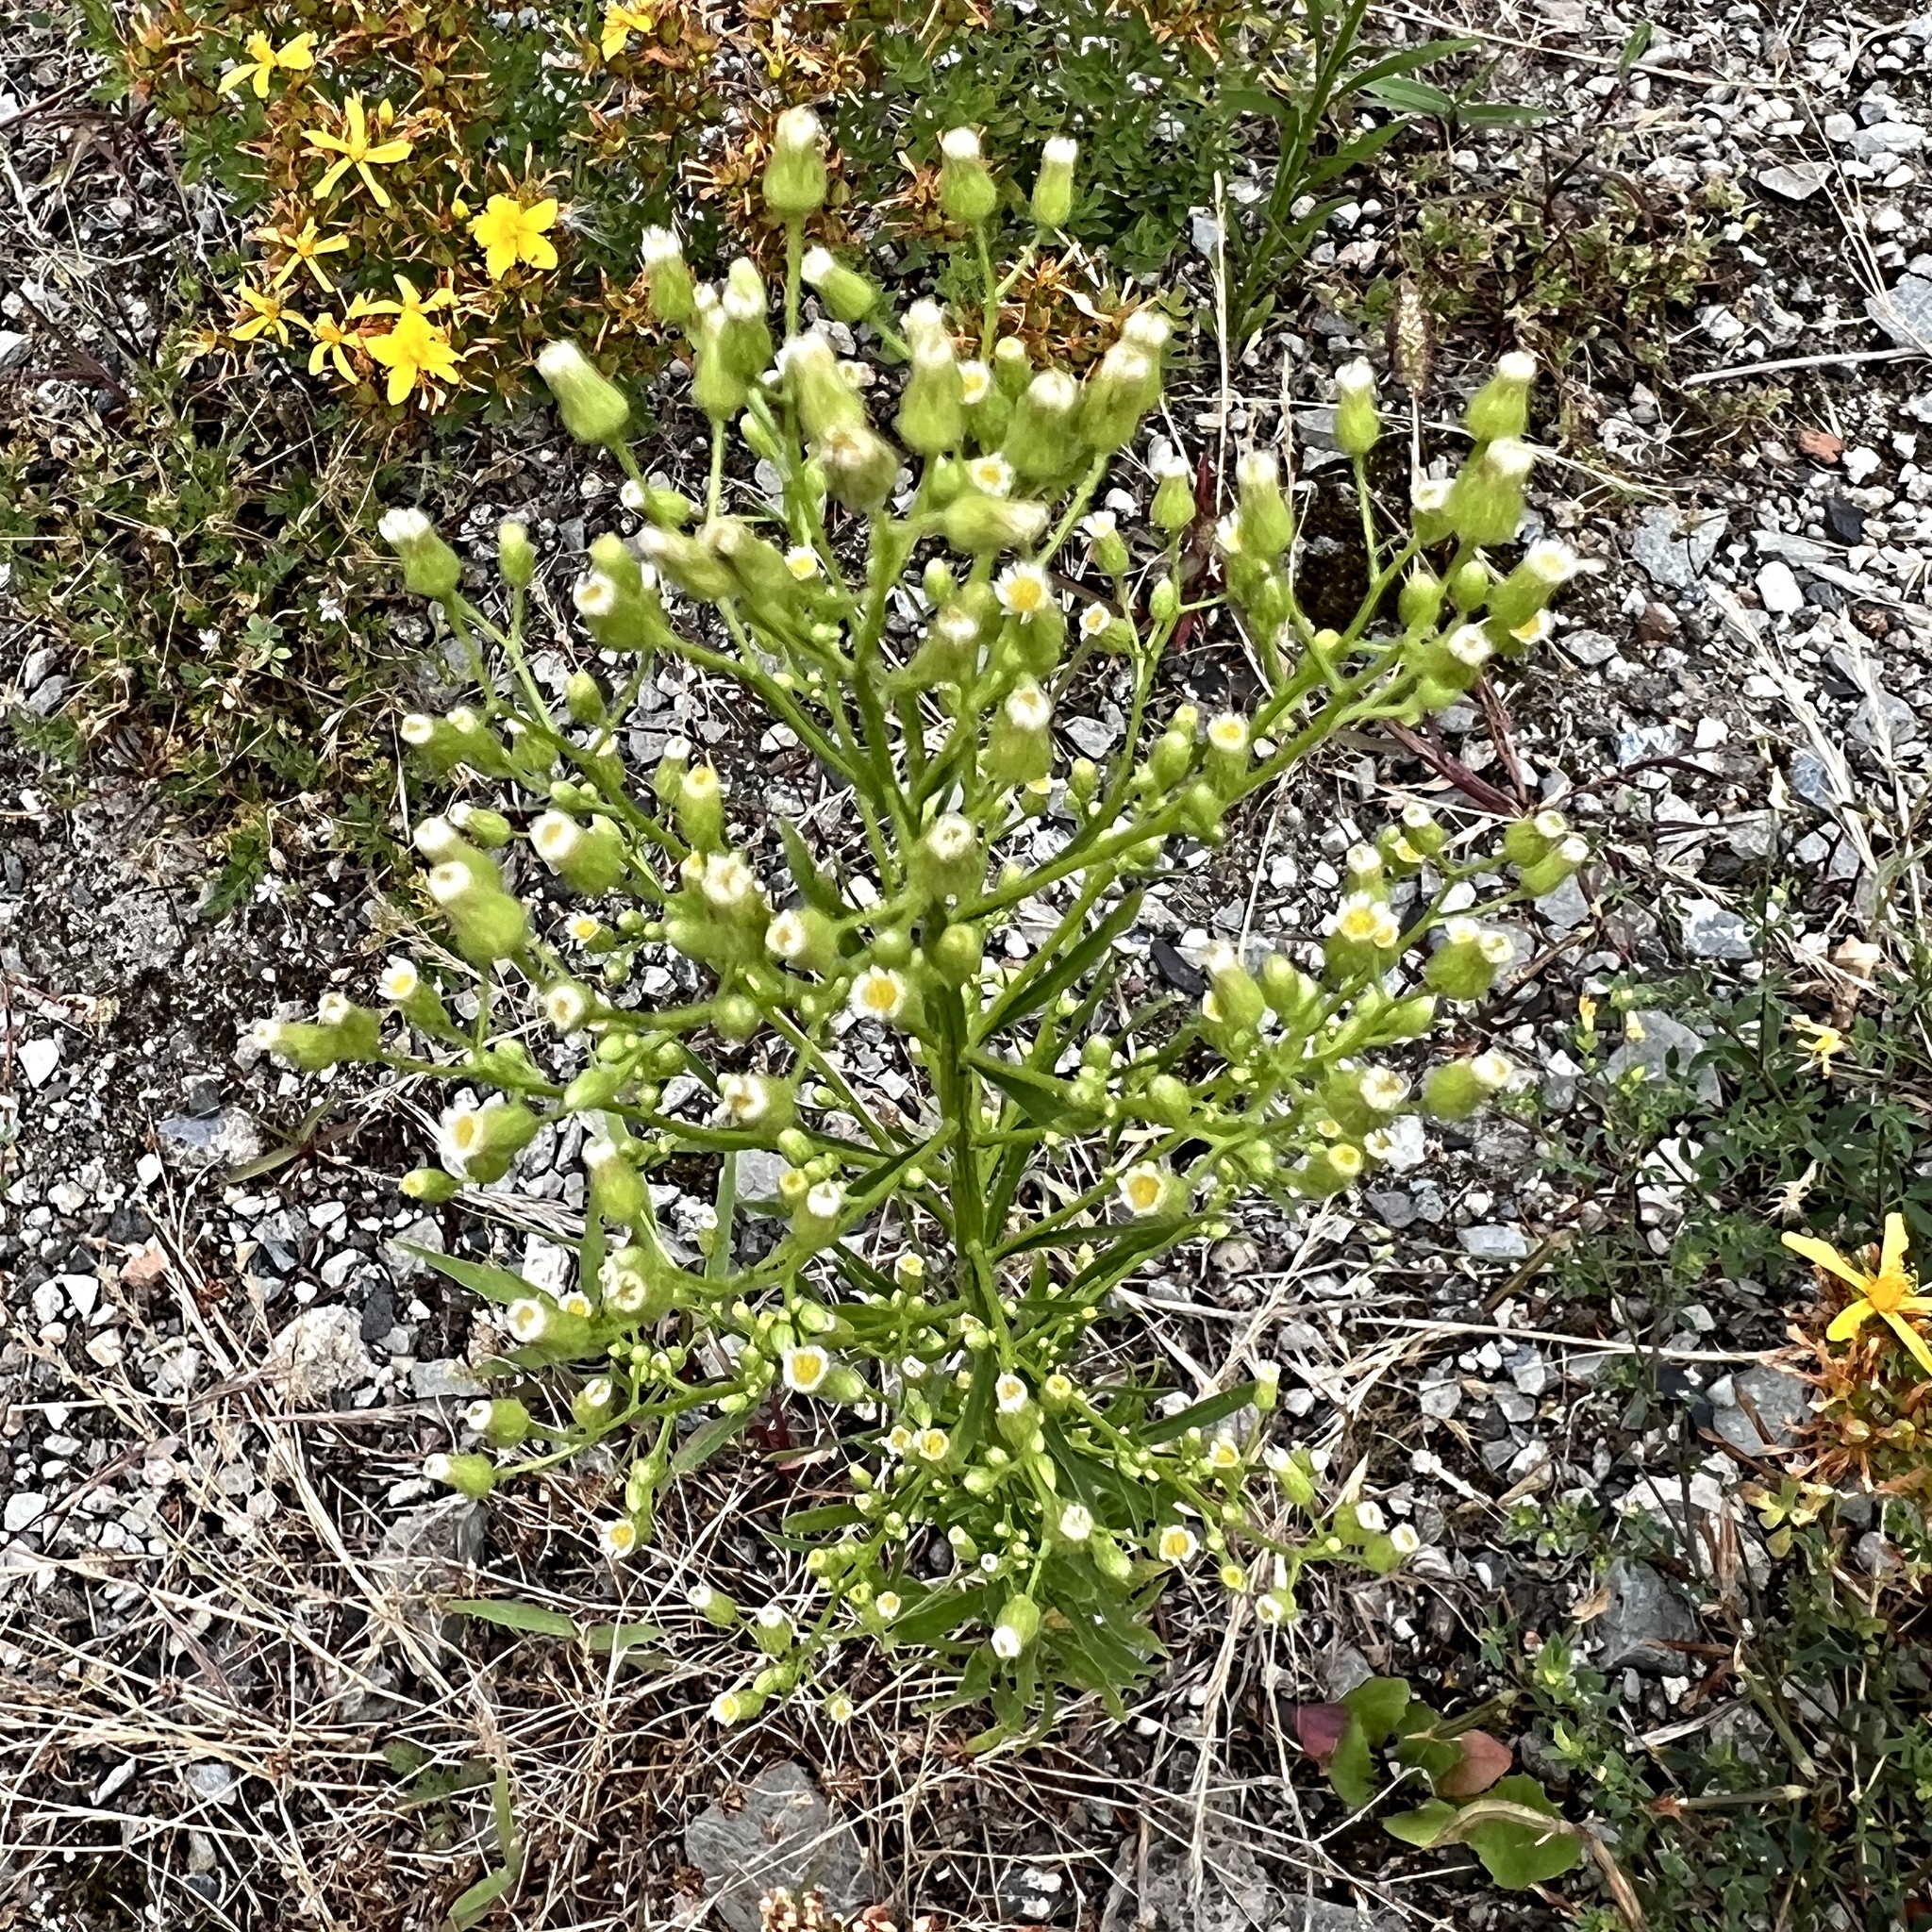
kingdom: Plantae
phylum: Tracheophyta
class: Magnoliopsida
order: Asterales
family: Asteraceae
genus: Erigeron
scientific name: Erigeron canadensis
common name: Canadian fleabane
